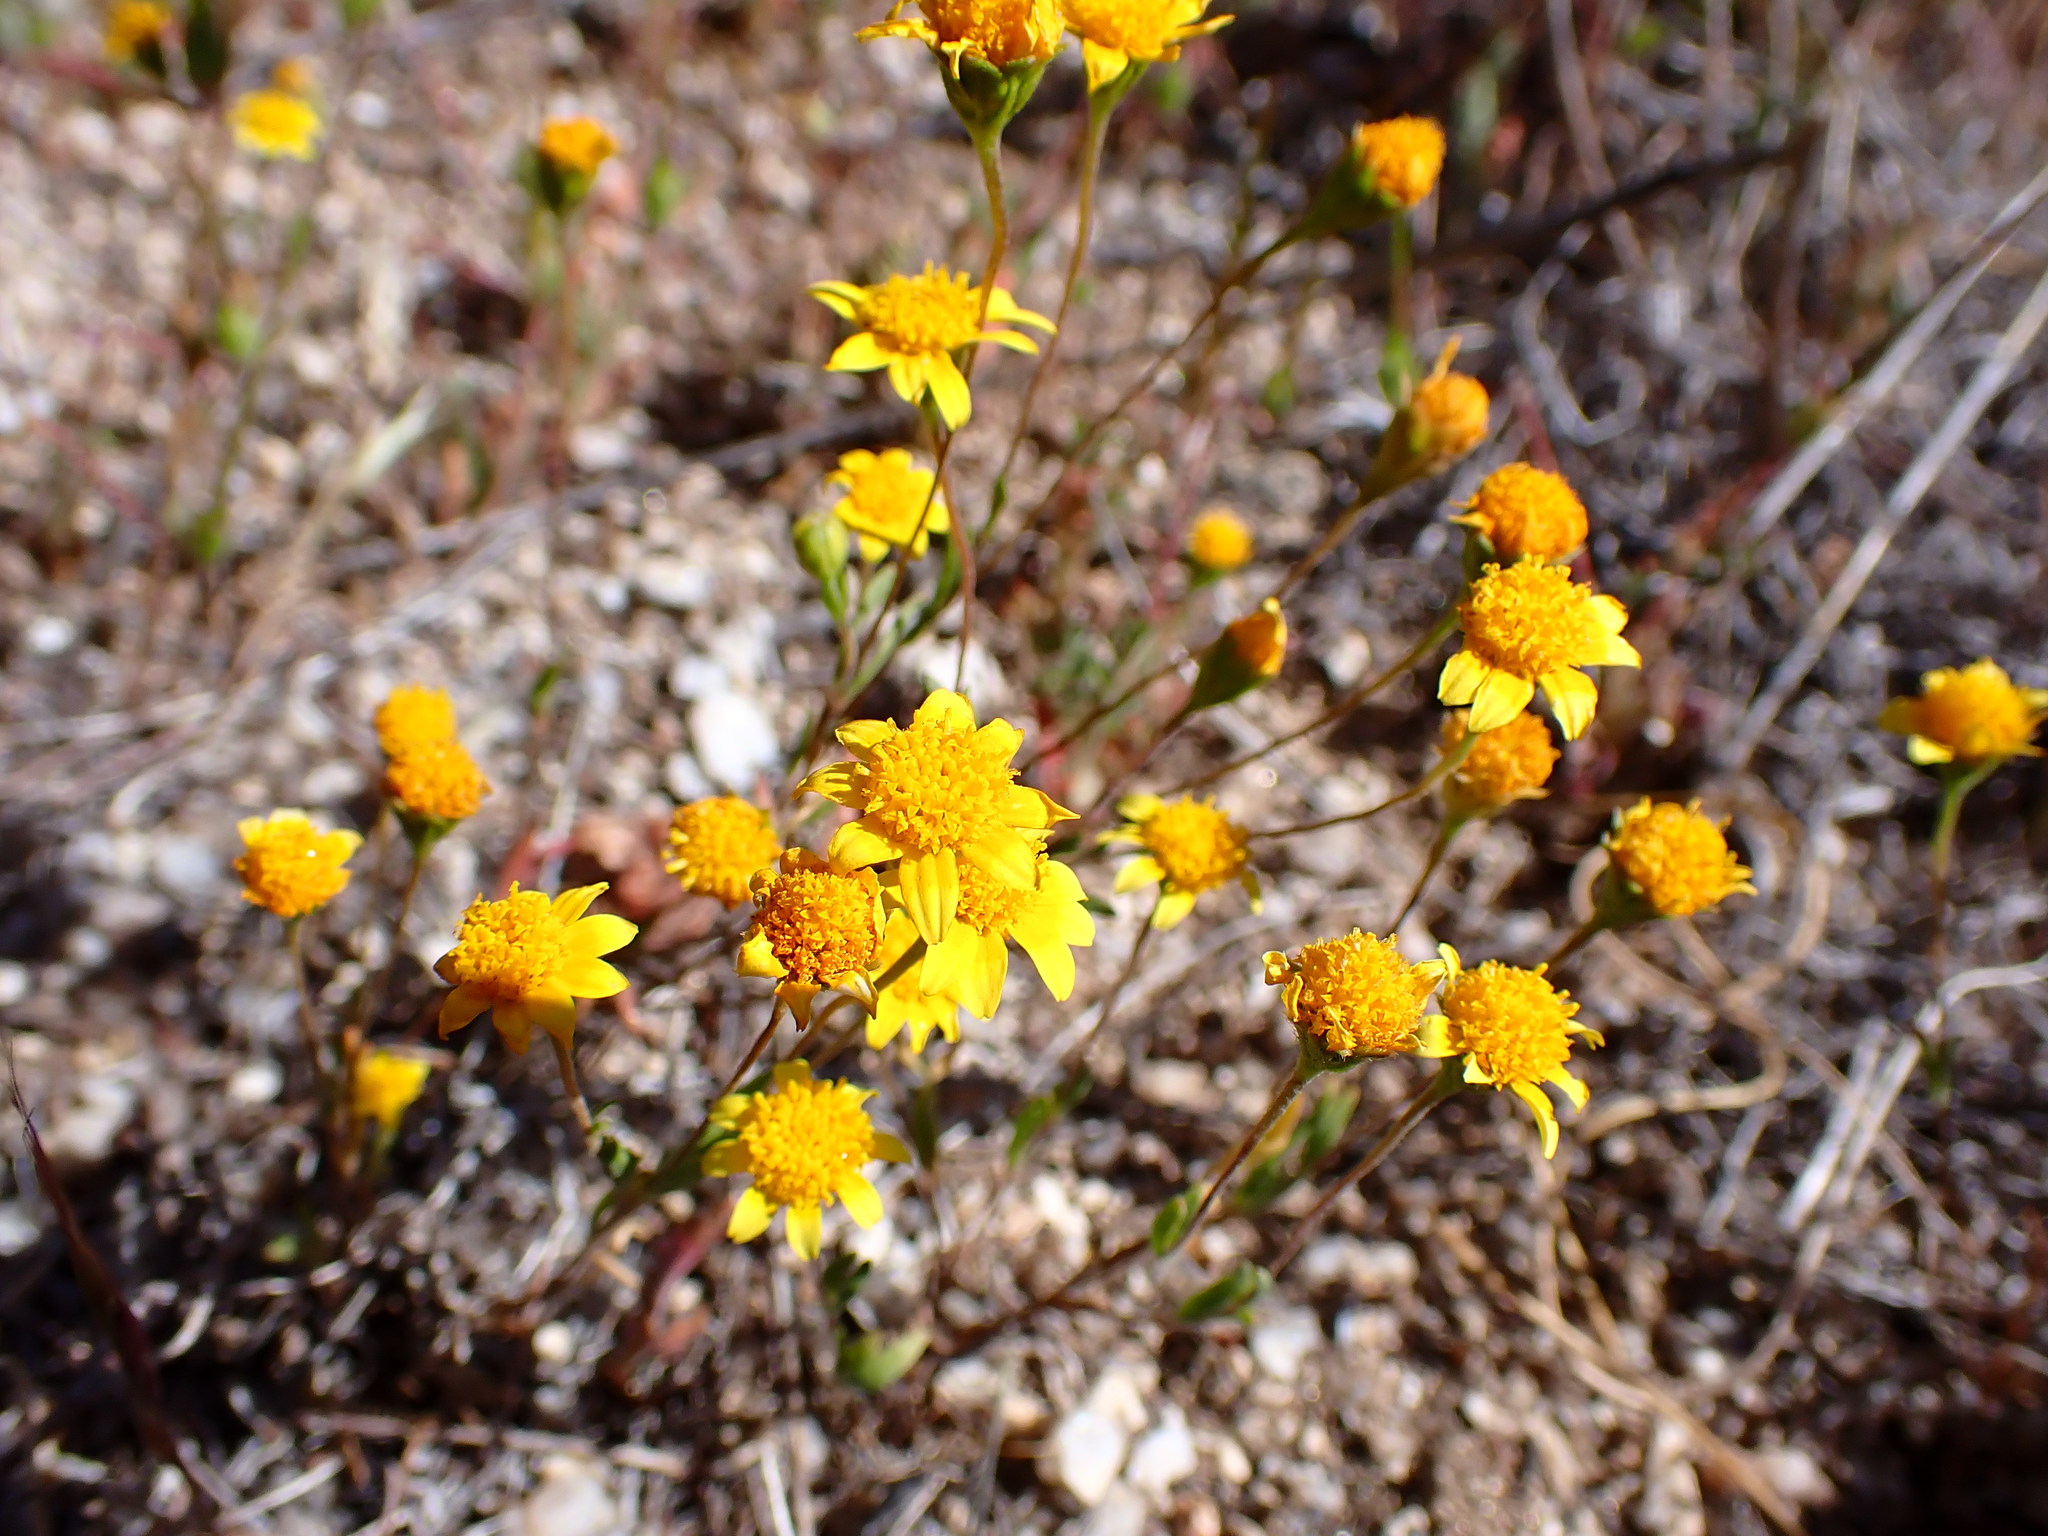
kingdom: Plantae
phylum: Tracheophyta
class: Magnoliopsida
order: Asterales
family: Asteraceae
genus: Lasthenia
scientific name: Lasthenia gracilis
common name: Common goldfields
